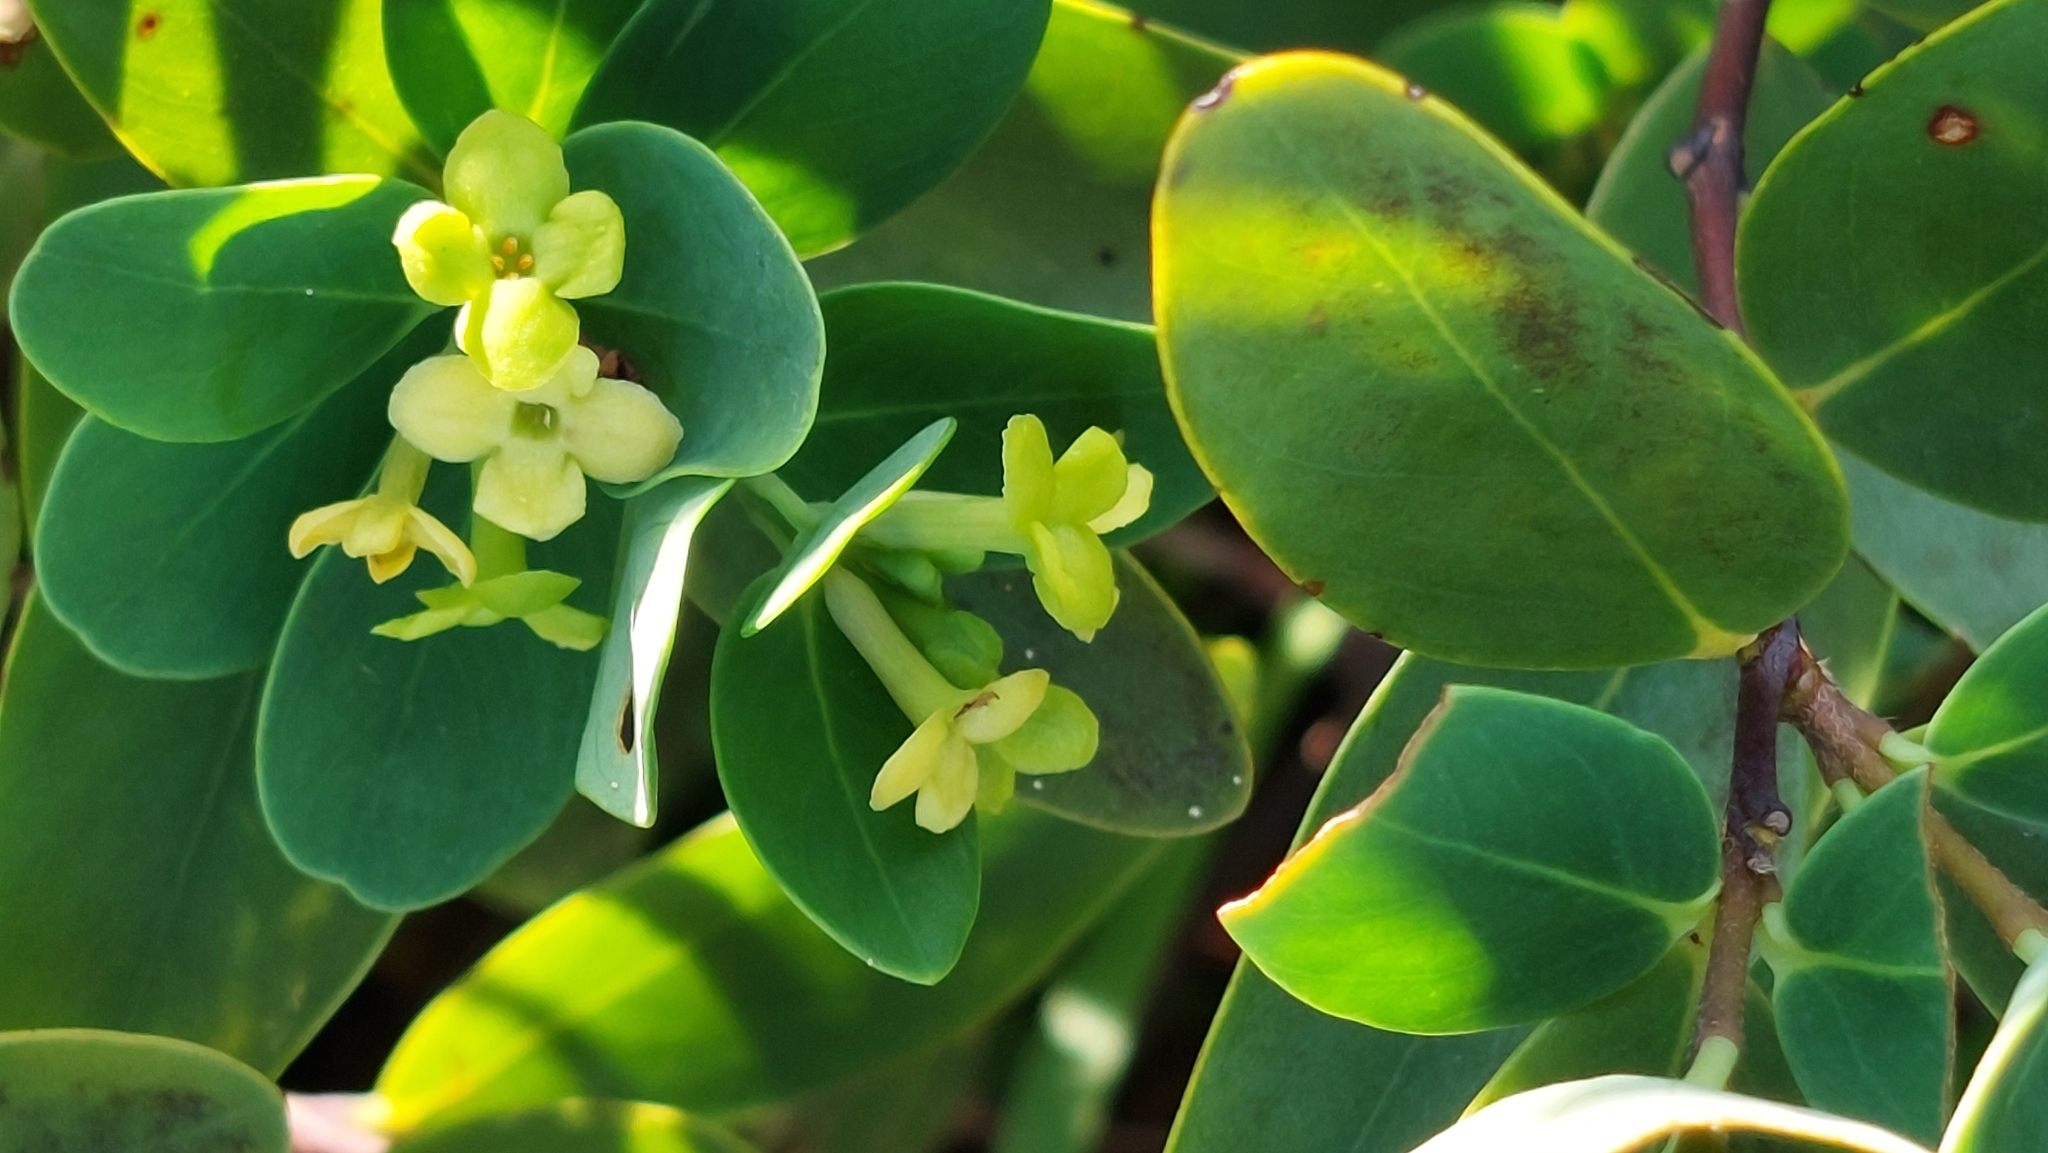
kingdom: Plantae
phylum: Tracheophyta
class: Magnoliopsida
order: Malvales
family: Thymelaeaceae
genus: Wikstroemia
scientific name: Wikstroemia indica
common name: Tiebush
